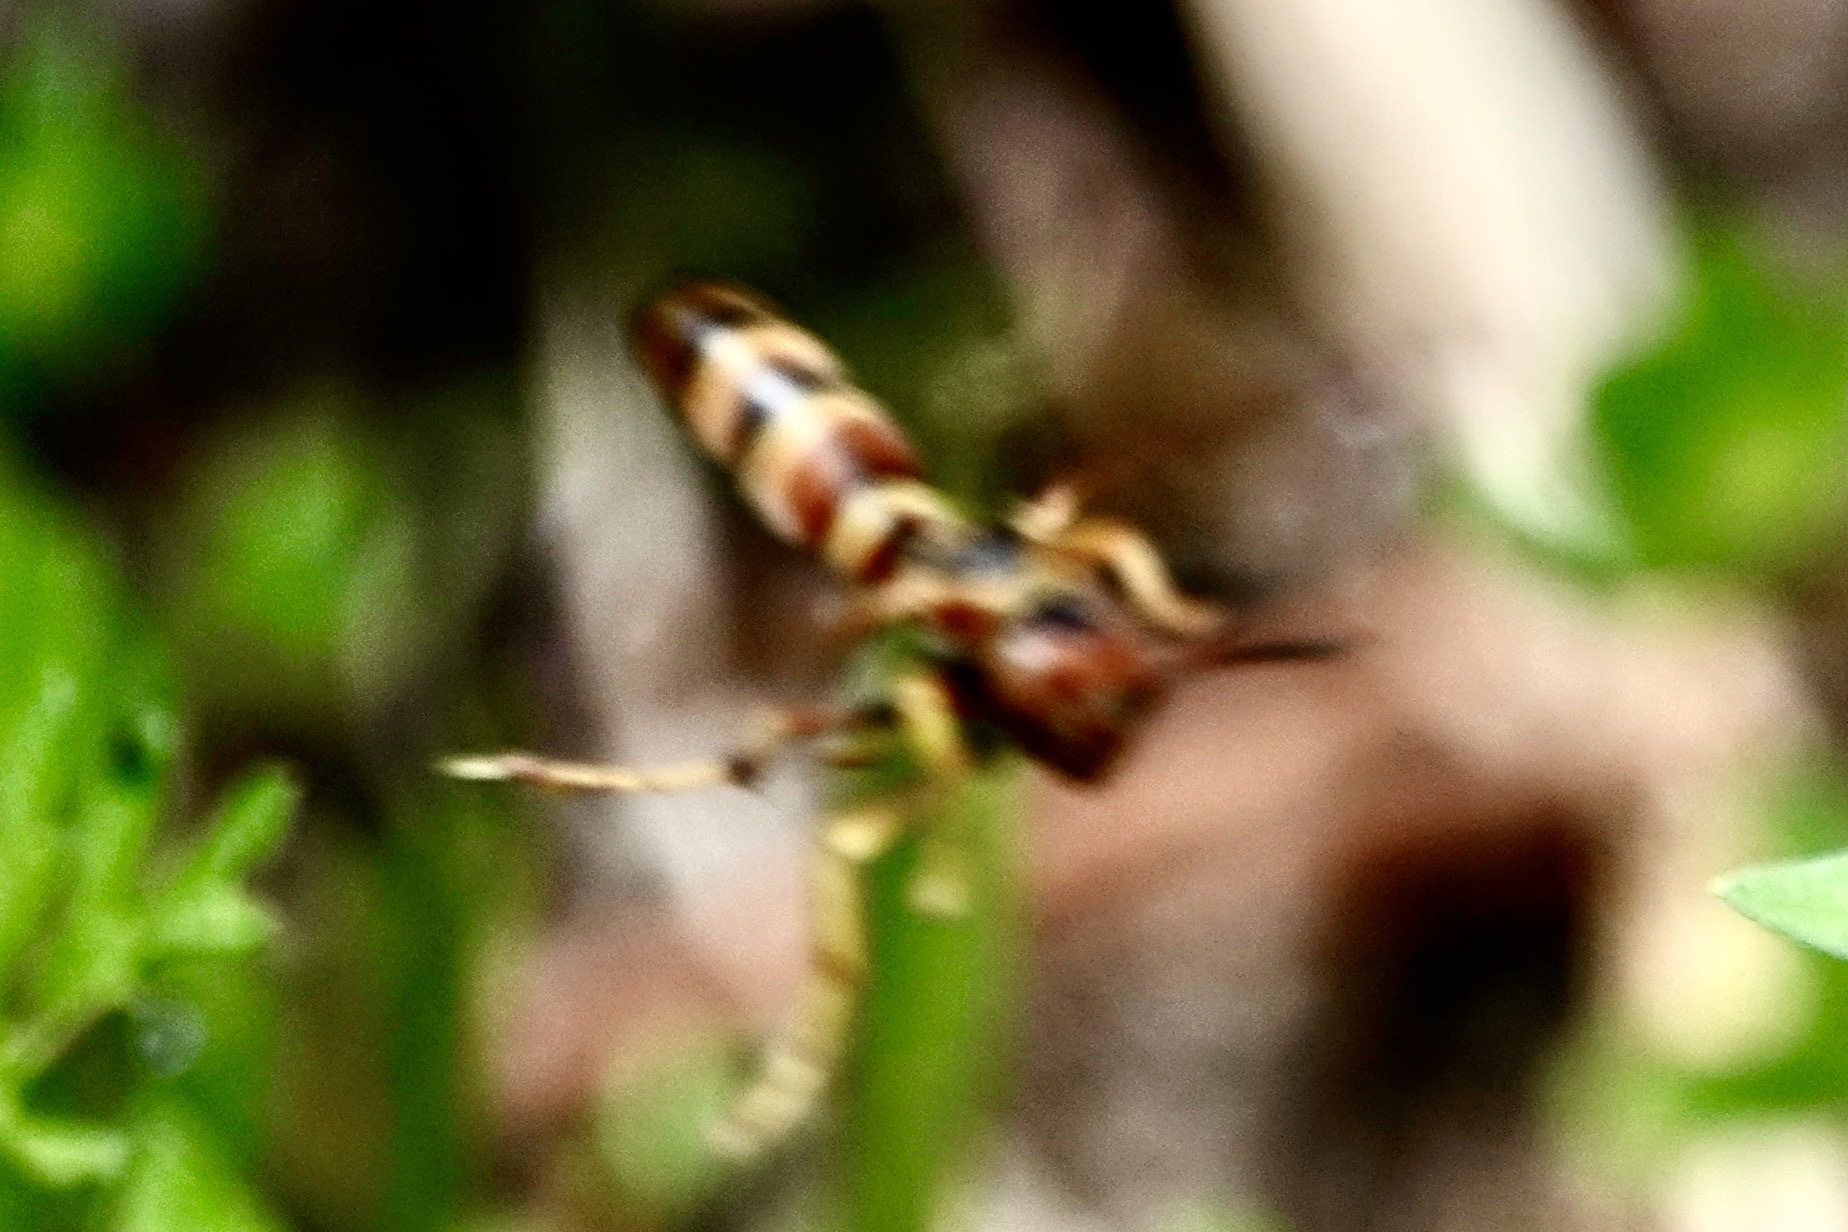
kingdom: Animalia
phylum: Arthropoda
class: Insecta
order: Hymenoptera
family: Eumenidae
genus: Polistes
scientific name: Polistes dorsalis
